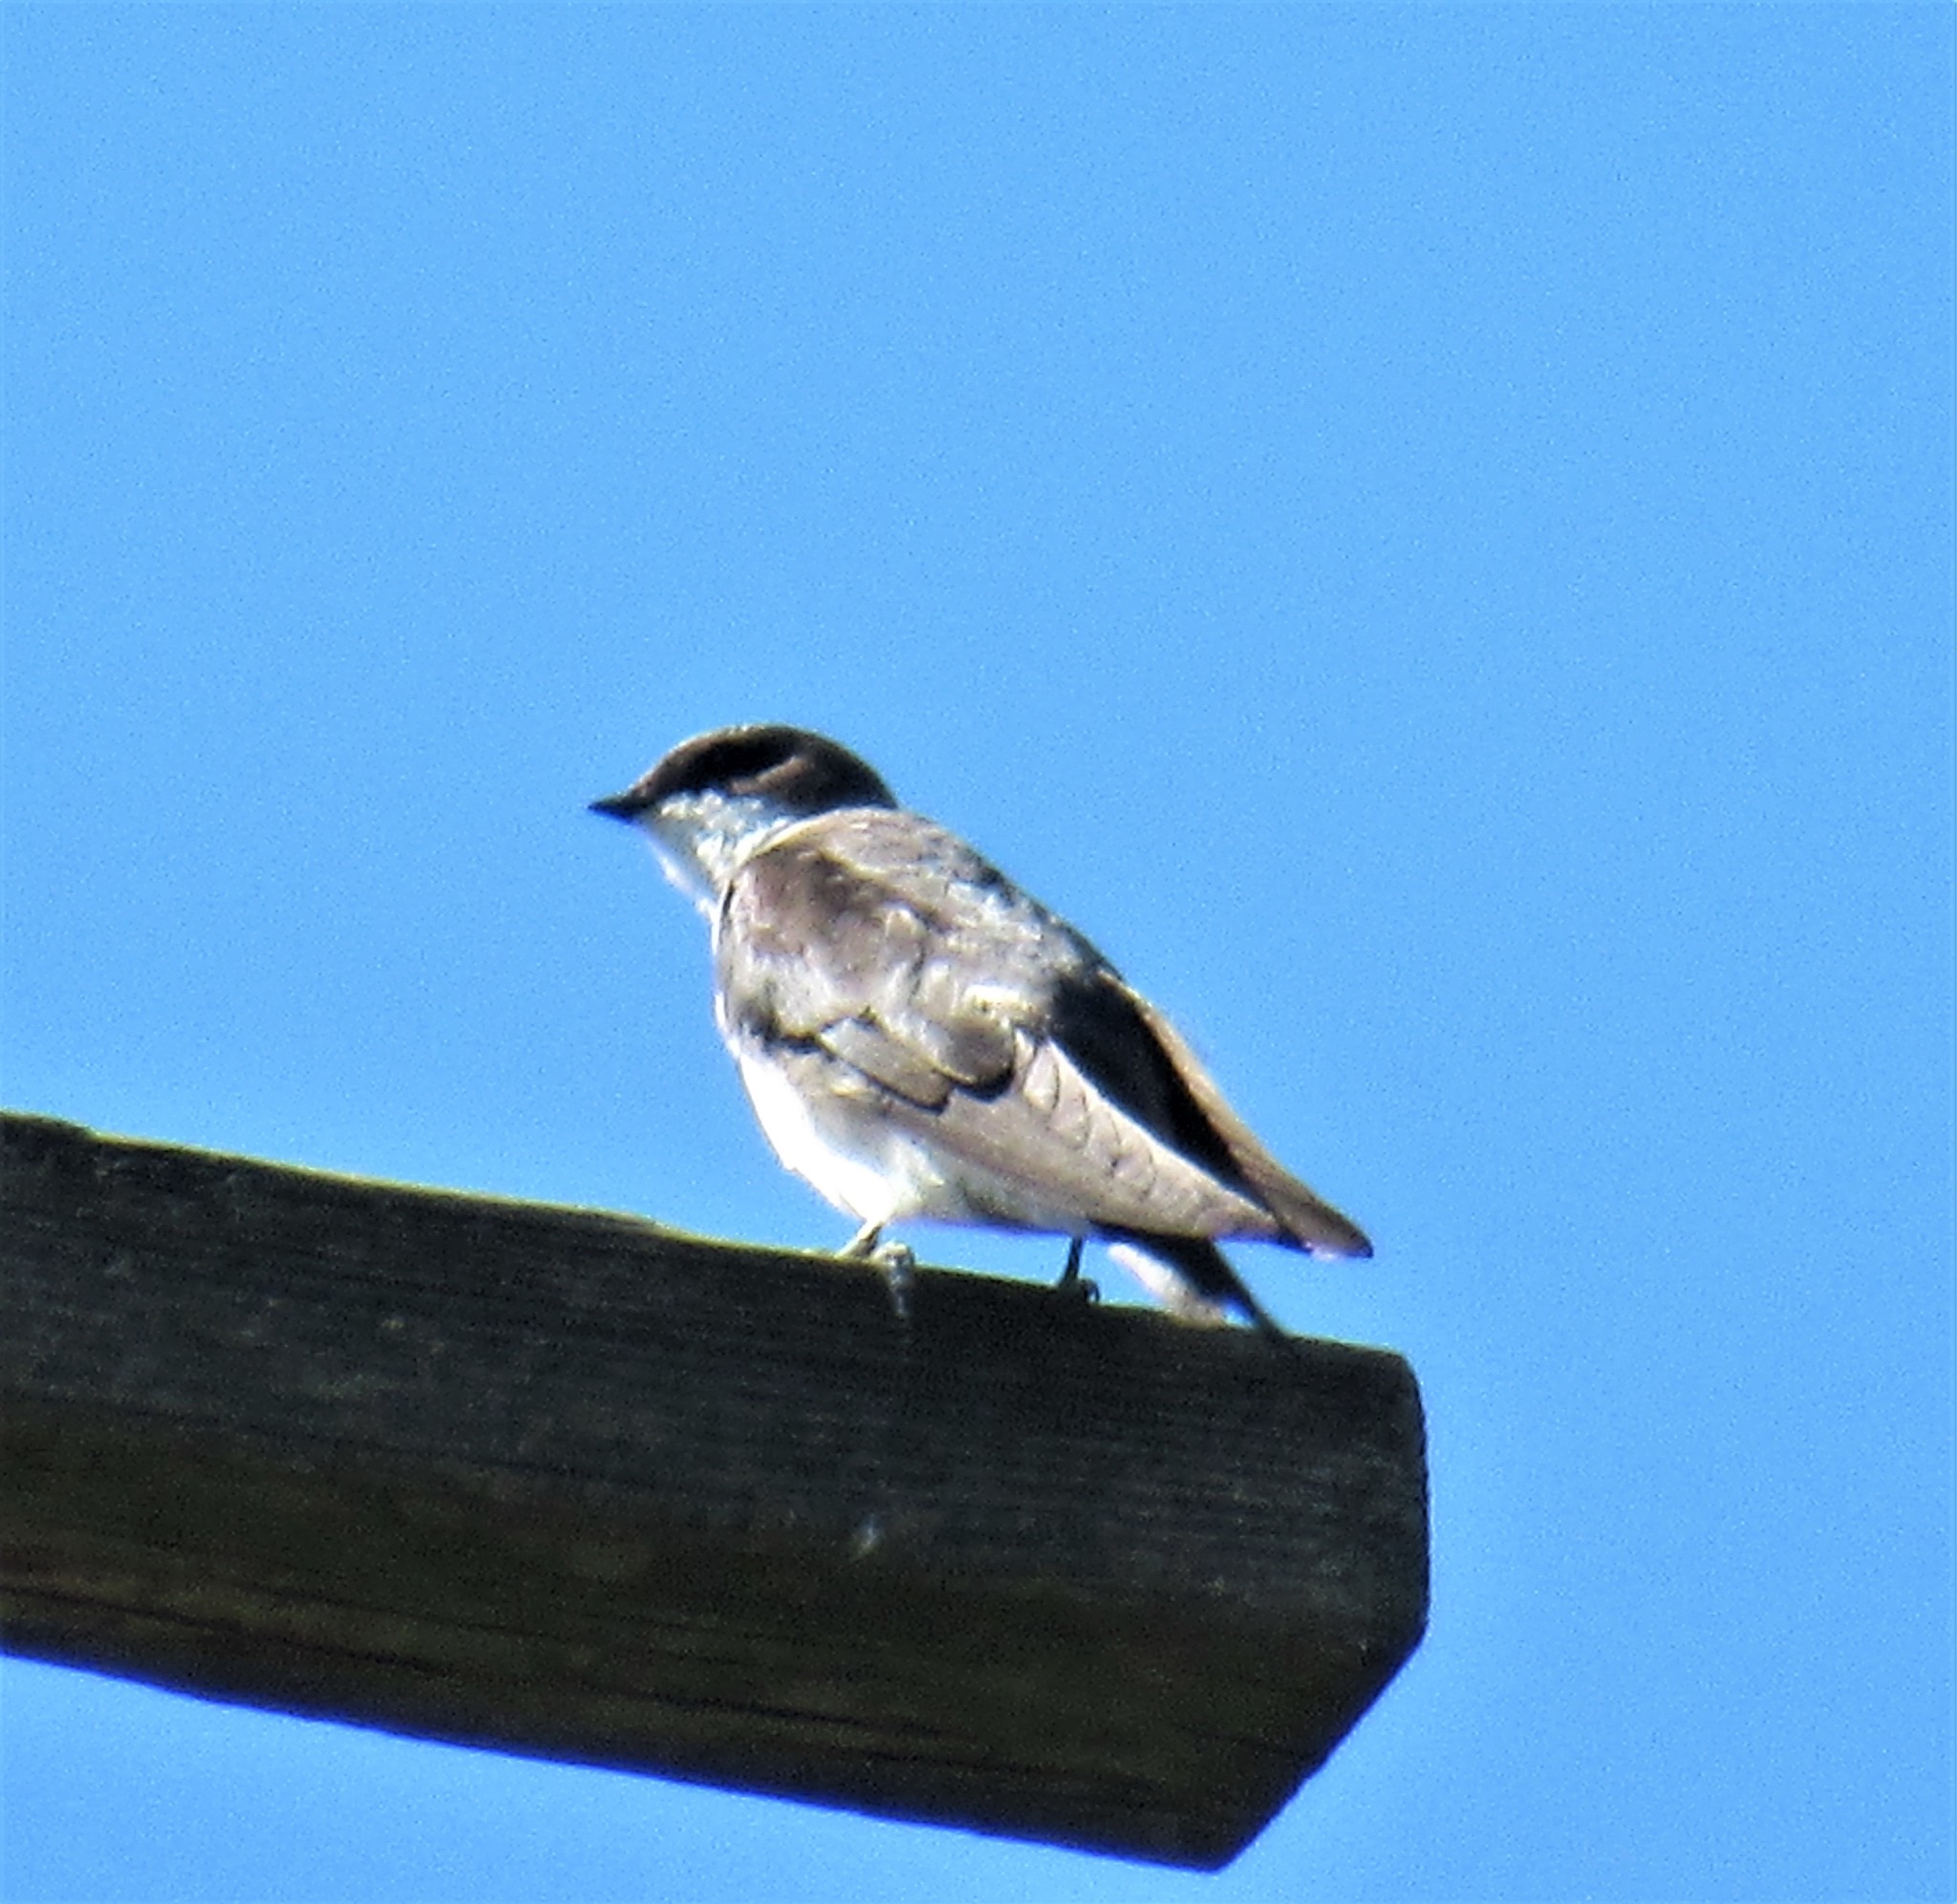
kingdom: Animalia
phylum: Chordata
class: Aves
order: Passeriformes
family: Hirundinidae
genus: Tachycineta
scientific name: Tachycineta bicolor
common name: Tree swallow
